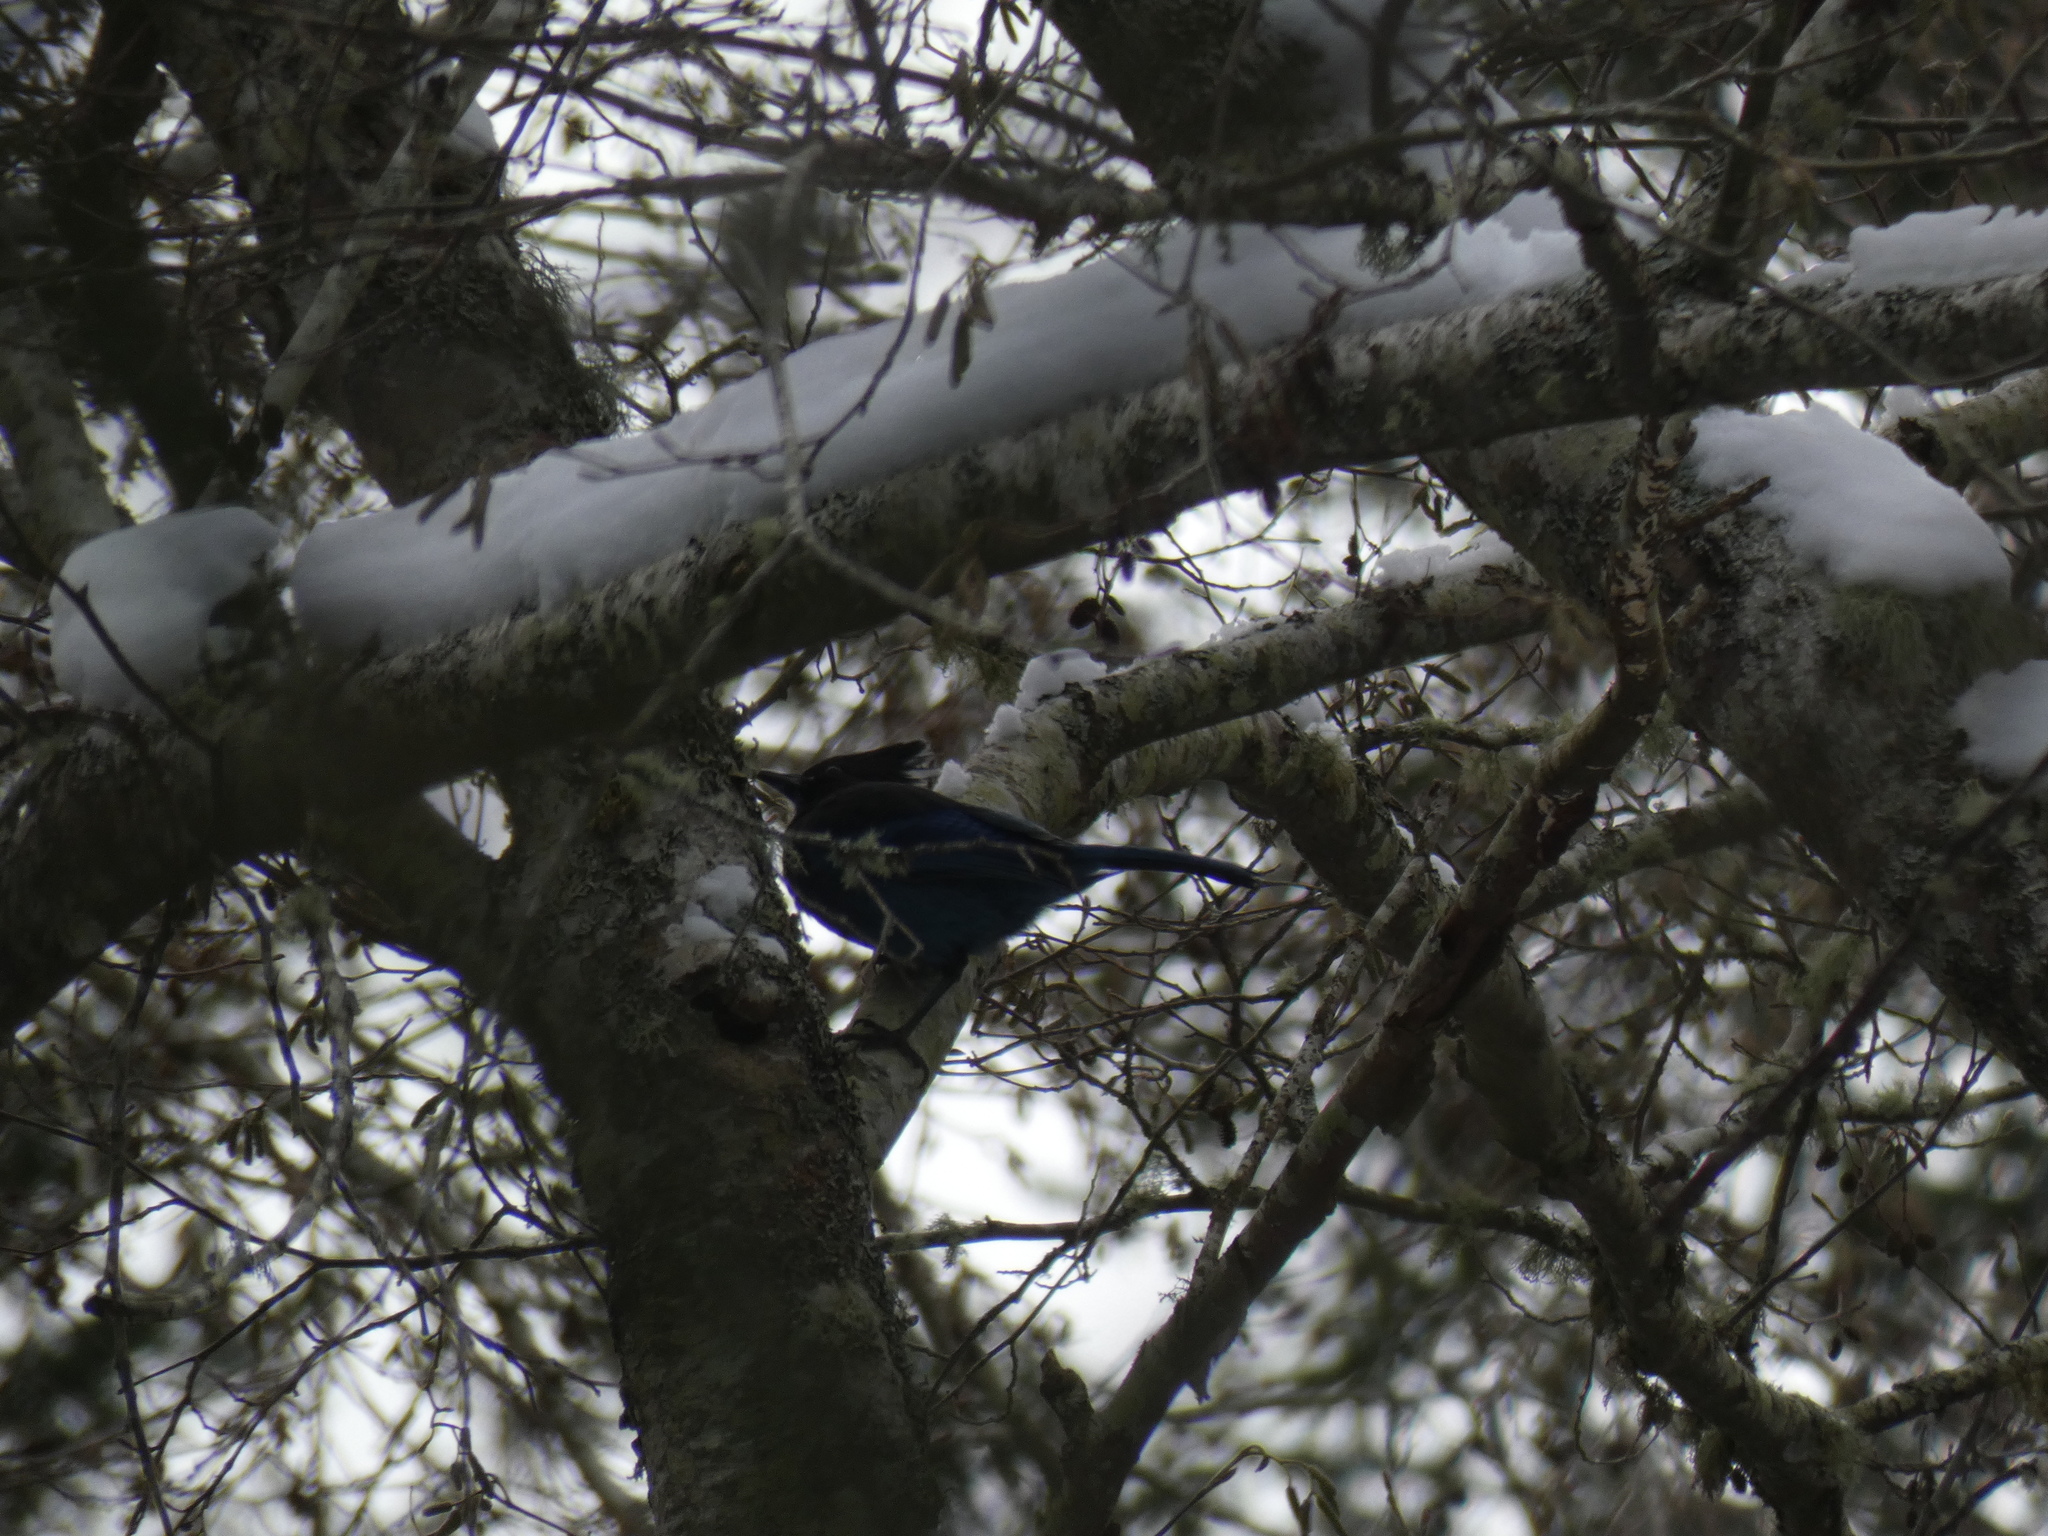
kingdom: Animalia
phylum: Chordata
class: Aves
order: Passeriformes
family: Corvidae
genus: Cyanocitta
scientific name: Cyanocitta stelleri
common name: Steller's jay
